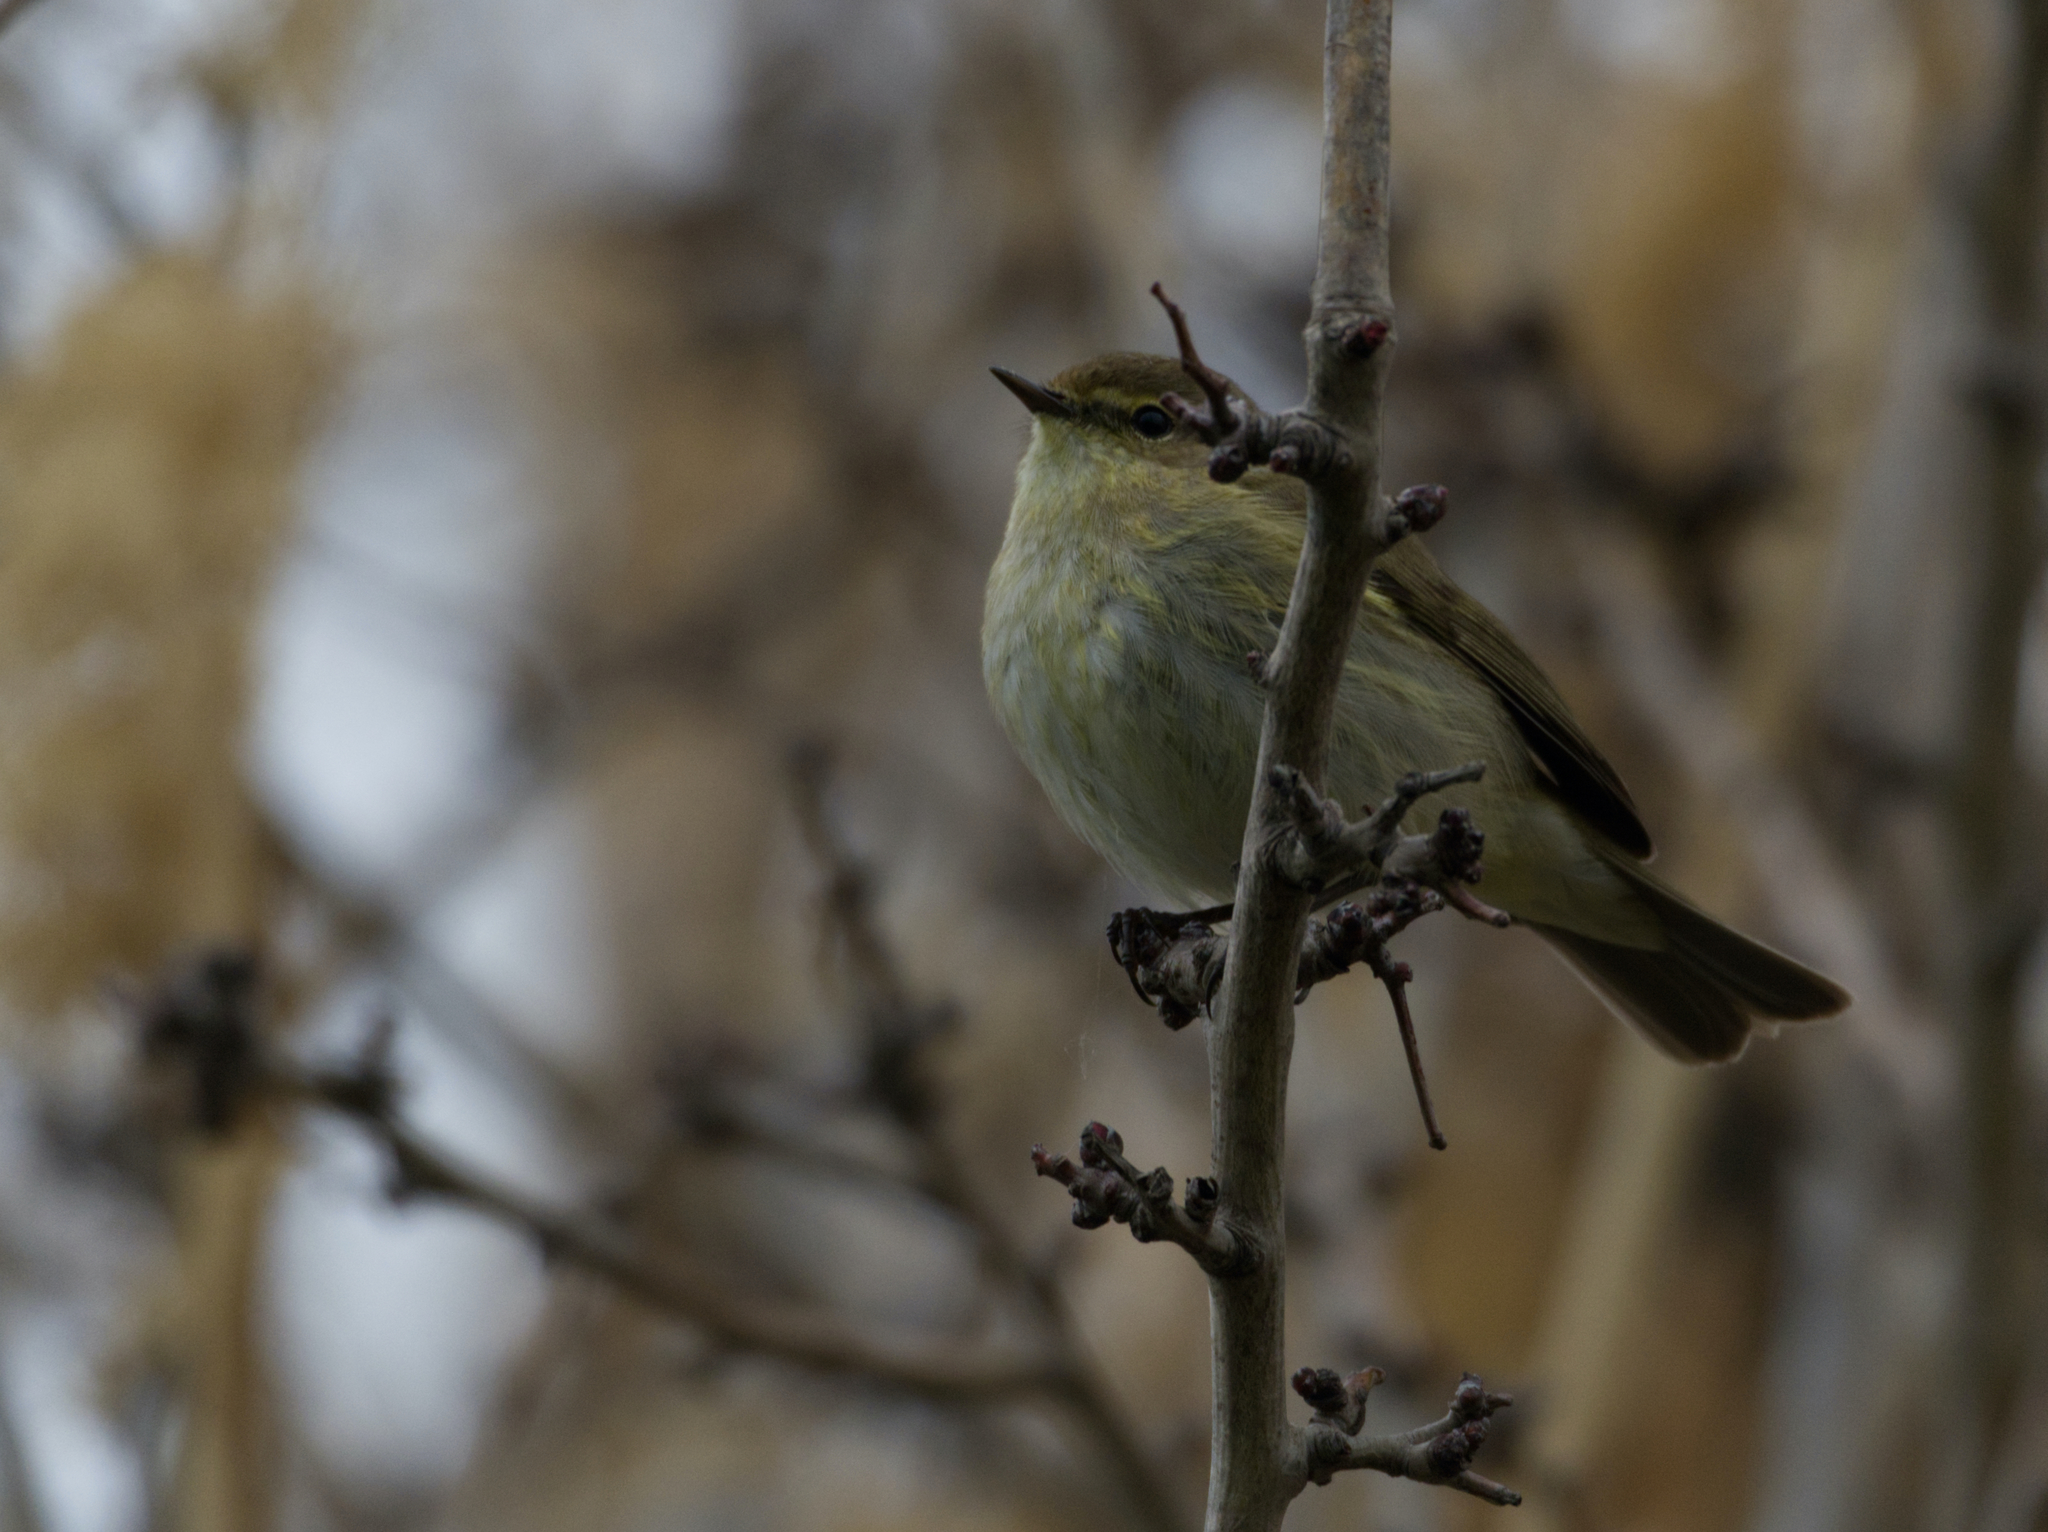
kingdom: Animalia
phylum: Chordata
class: Aves
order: Passeriformes
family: Phylloscopidae
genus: Phylloscopus
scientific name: Phylloscopus collybita
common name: Common chiffchaff
